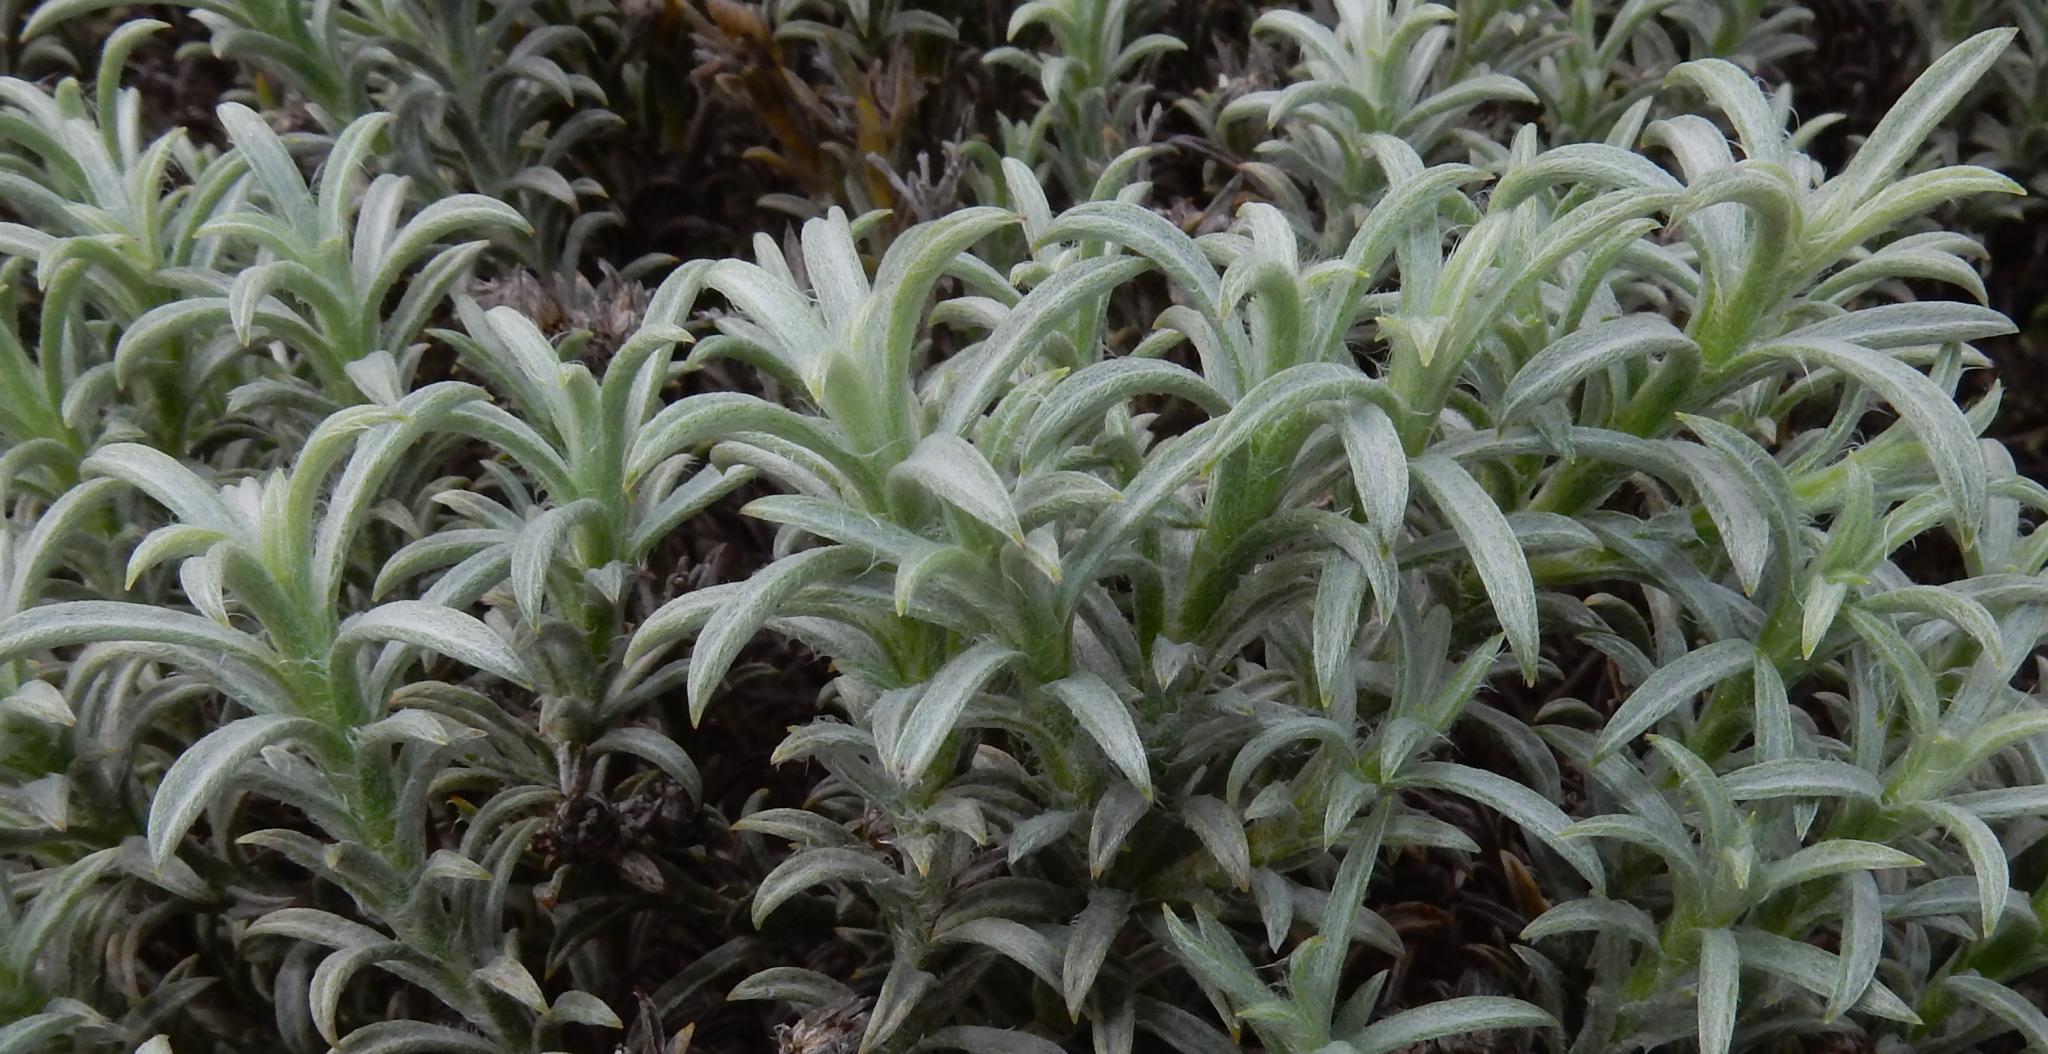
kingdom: Plantae
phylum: Tracheophyta
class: Magnoliopsida
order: Asterales
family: Asteraceae
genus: Achyranthemum
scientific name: Achyranthemum sordescens
